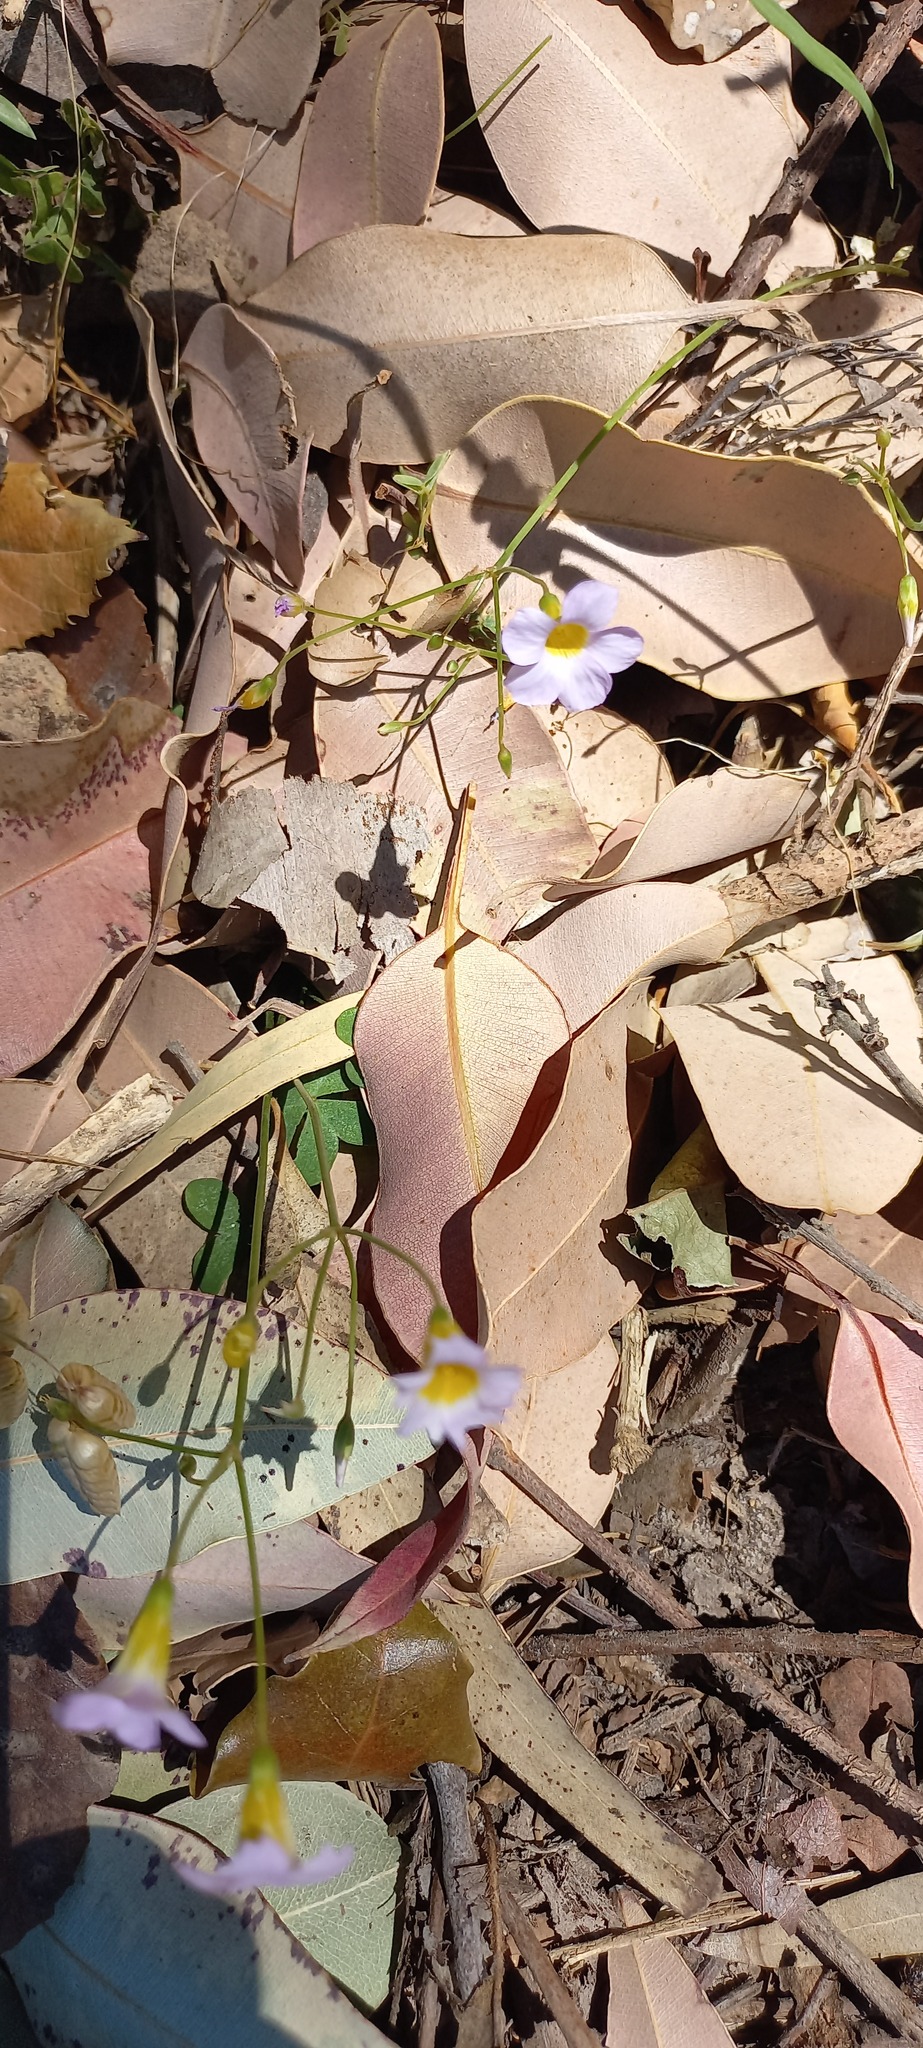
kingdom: Plantae
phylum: Tracheophyta
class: Magnoliopsida
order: Oxalidales
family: Oxalidaceae
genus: Oxalis
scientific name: Oxalis caprina
